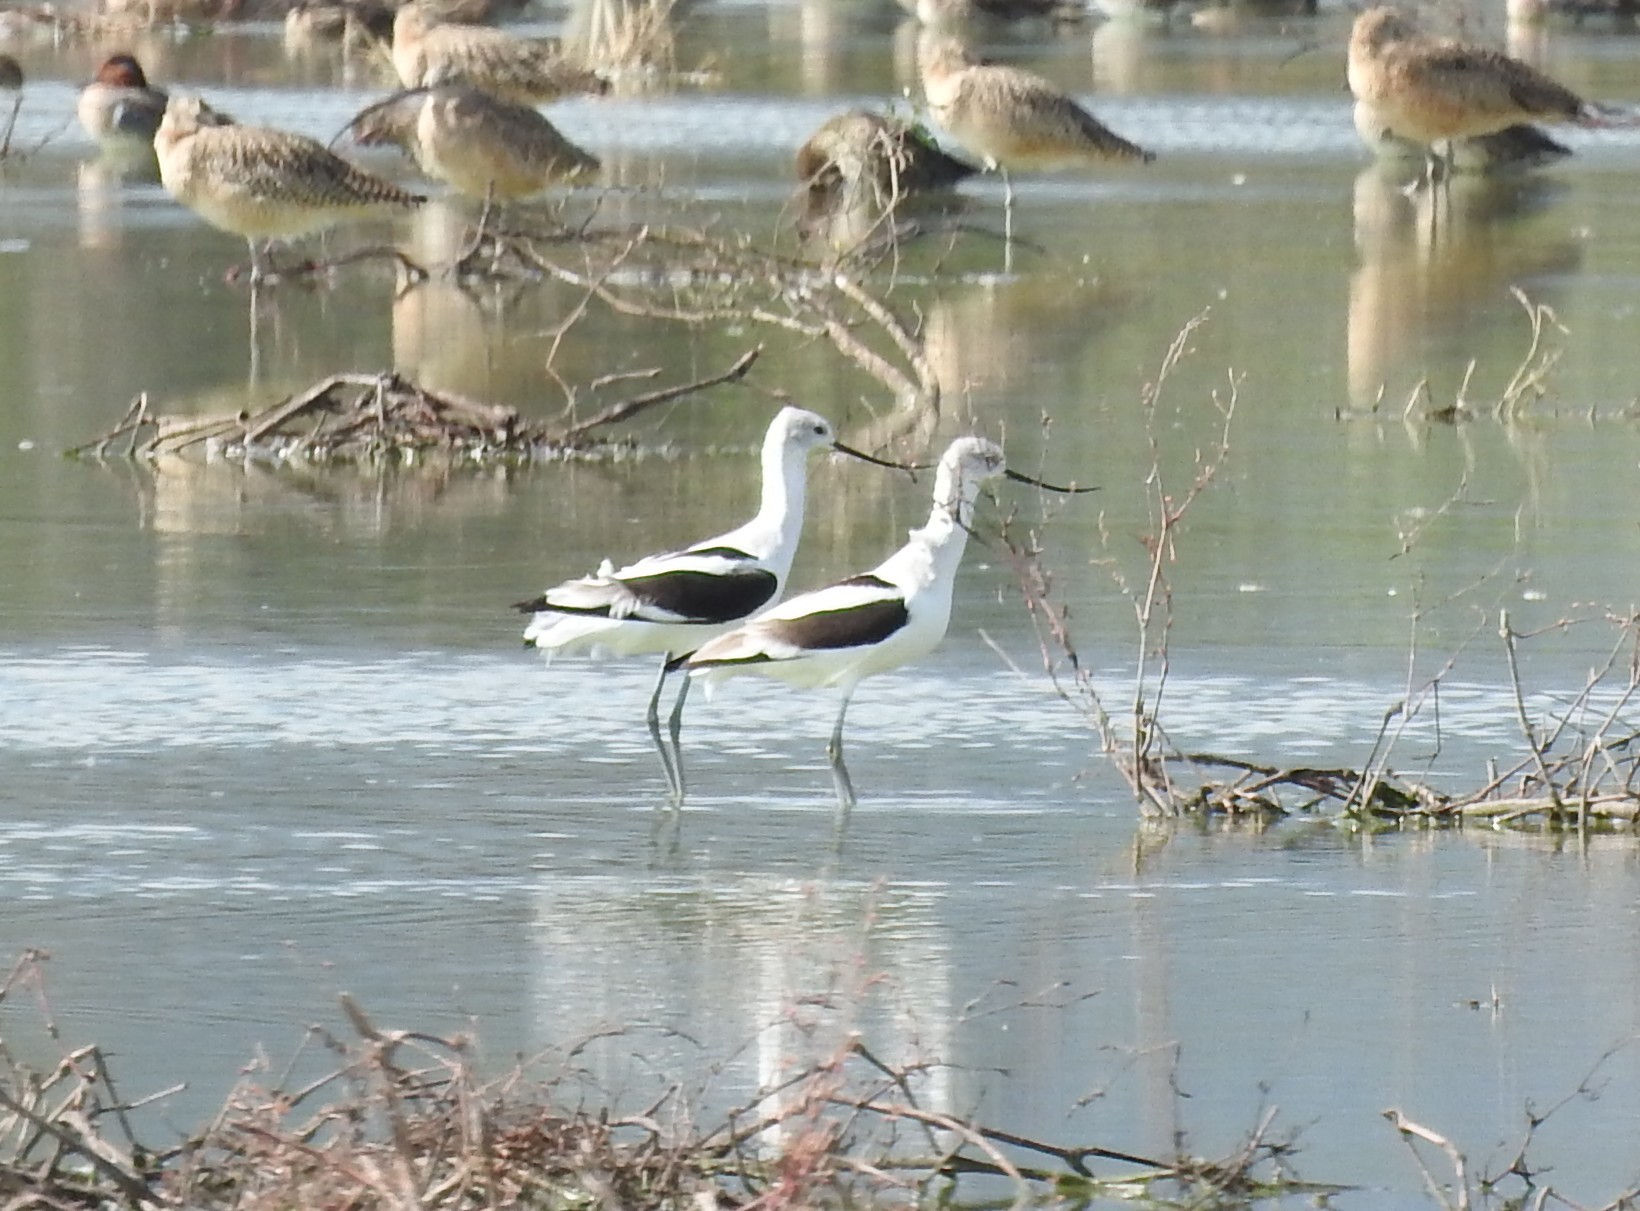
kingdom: Animalia
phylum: Chordata
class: Aves
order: Charadriiformes
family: Recurvirostridae
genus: Recurvirostra
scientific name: Recurvirostra americana
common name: American avocet
